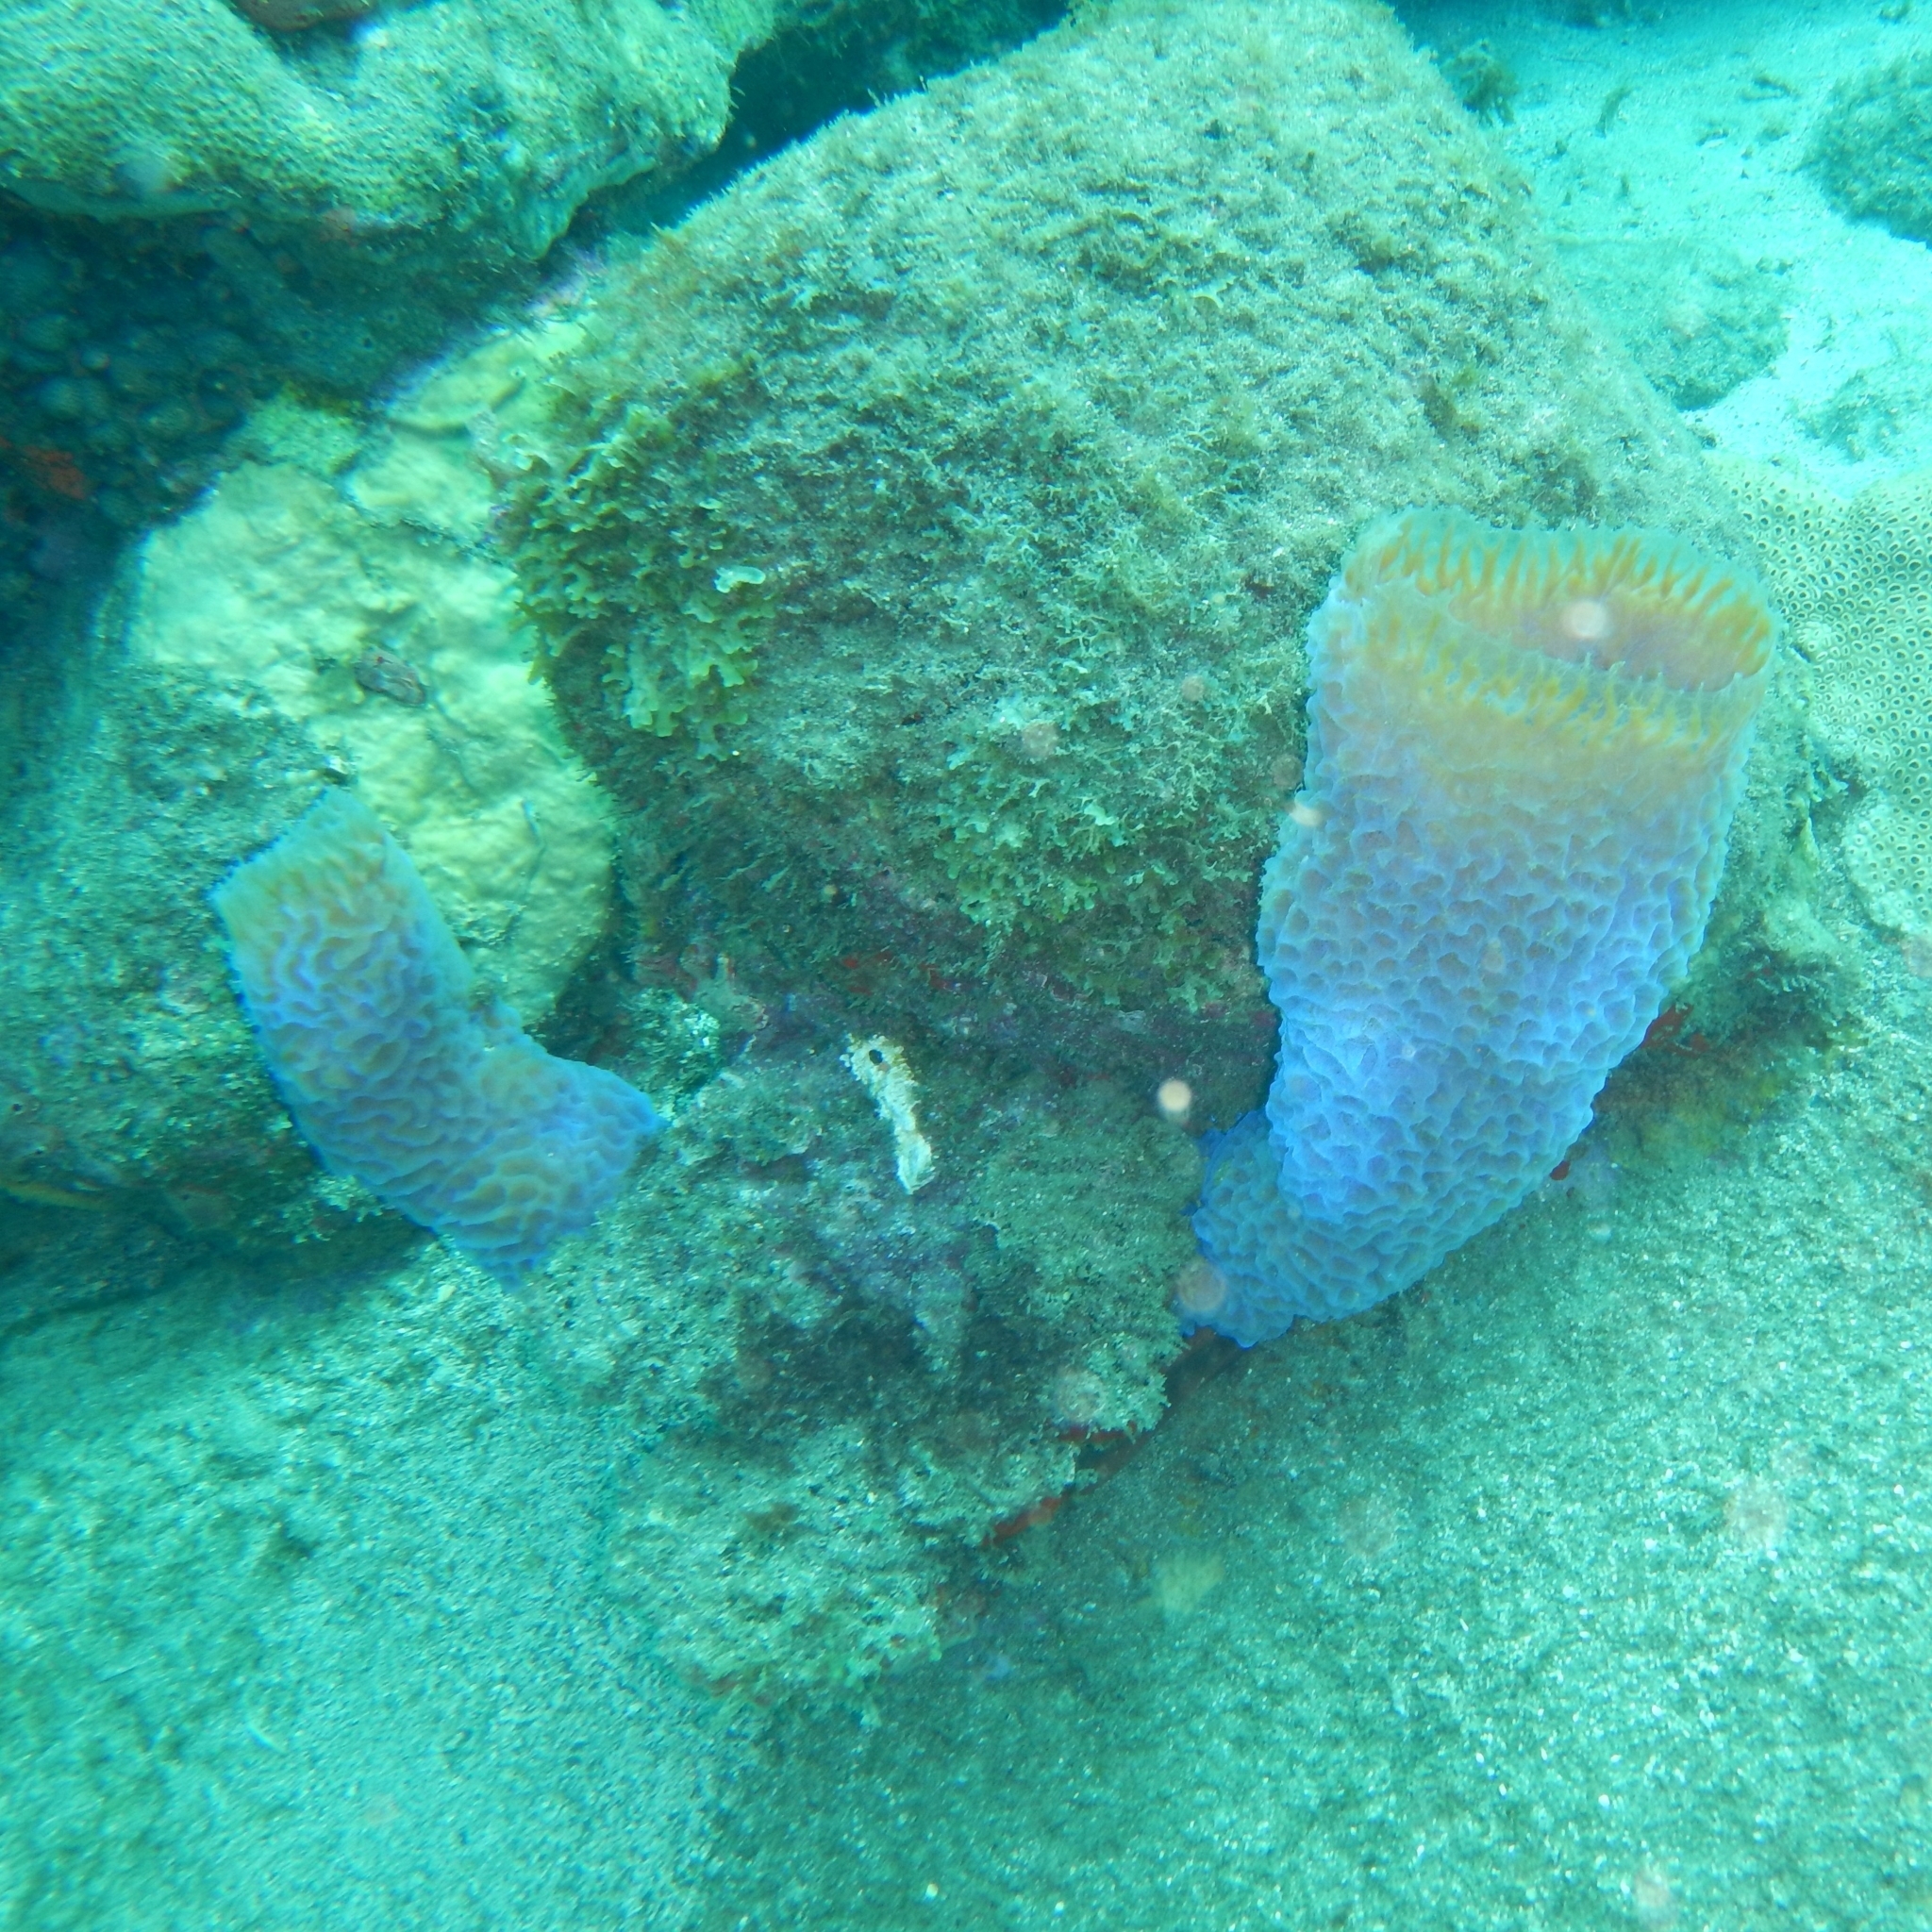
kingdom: Animalia
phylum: Porifera
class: Demospongiae
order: Haplosclerida
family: Callyspongiidae
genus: Callyspongia
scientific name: Callyspongia plicifera
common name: Azure vase sponge
